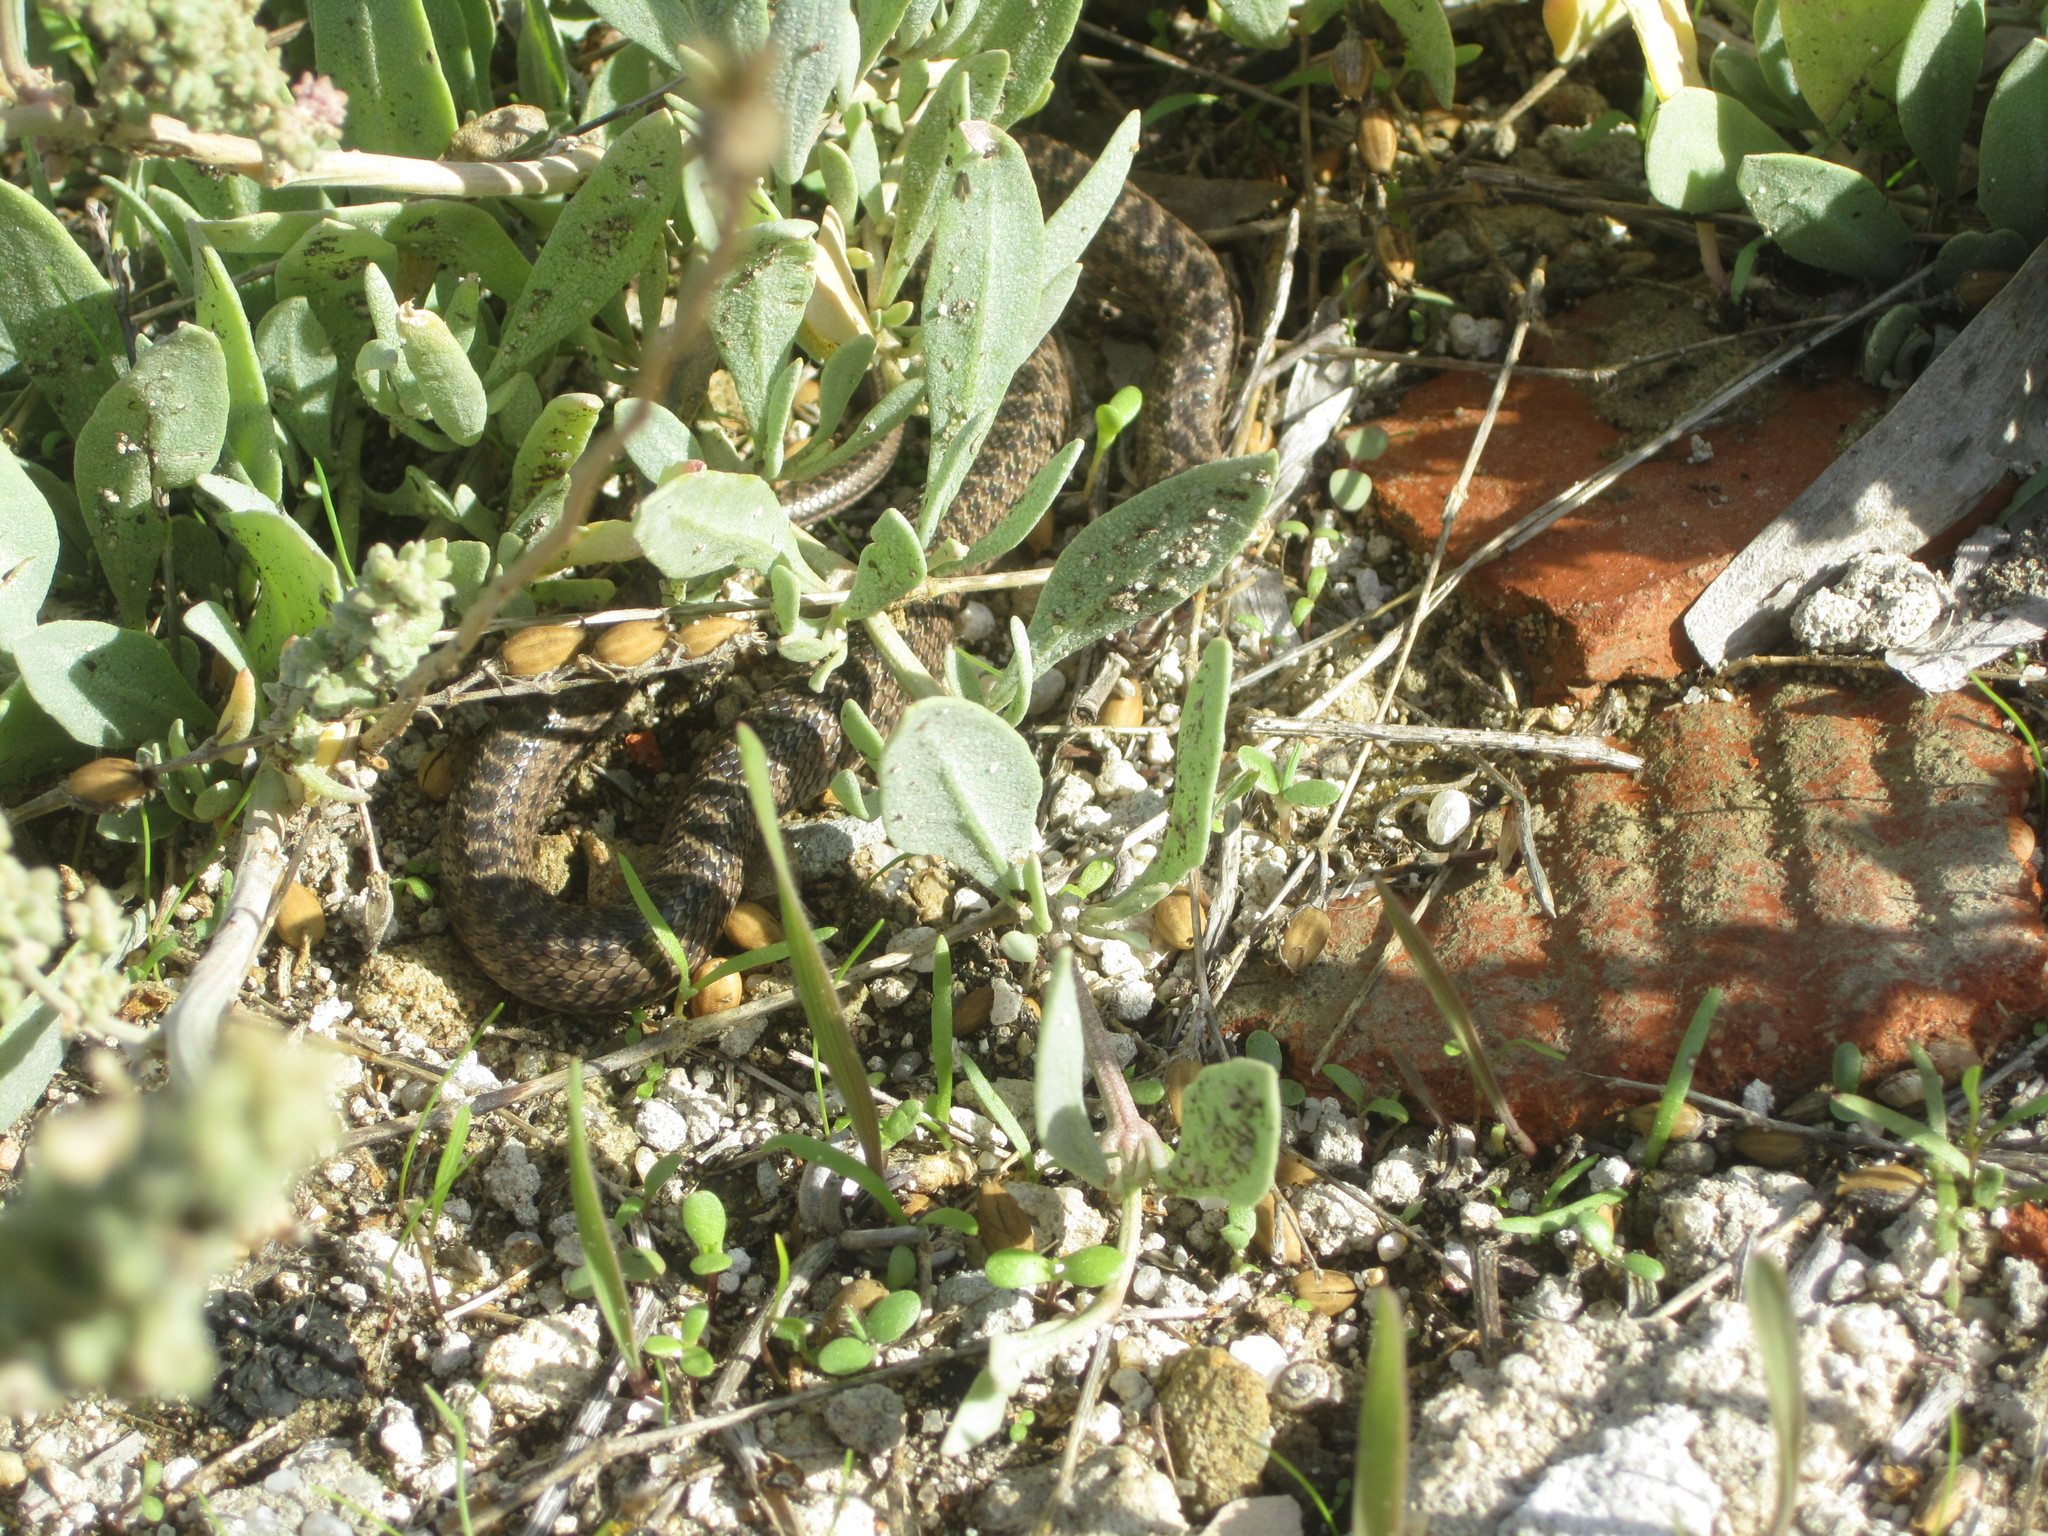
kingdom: Animalia
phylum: Chordata
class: Squamata
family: Psammophiidae
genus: Malpolon
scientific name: Malpolon monspessulanus
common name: Montpellier snake
